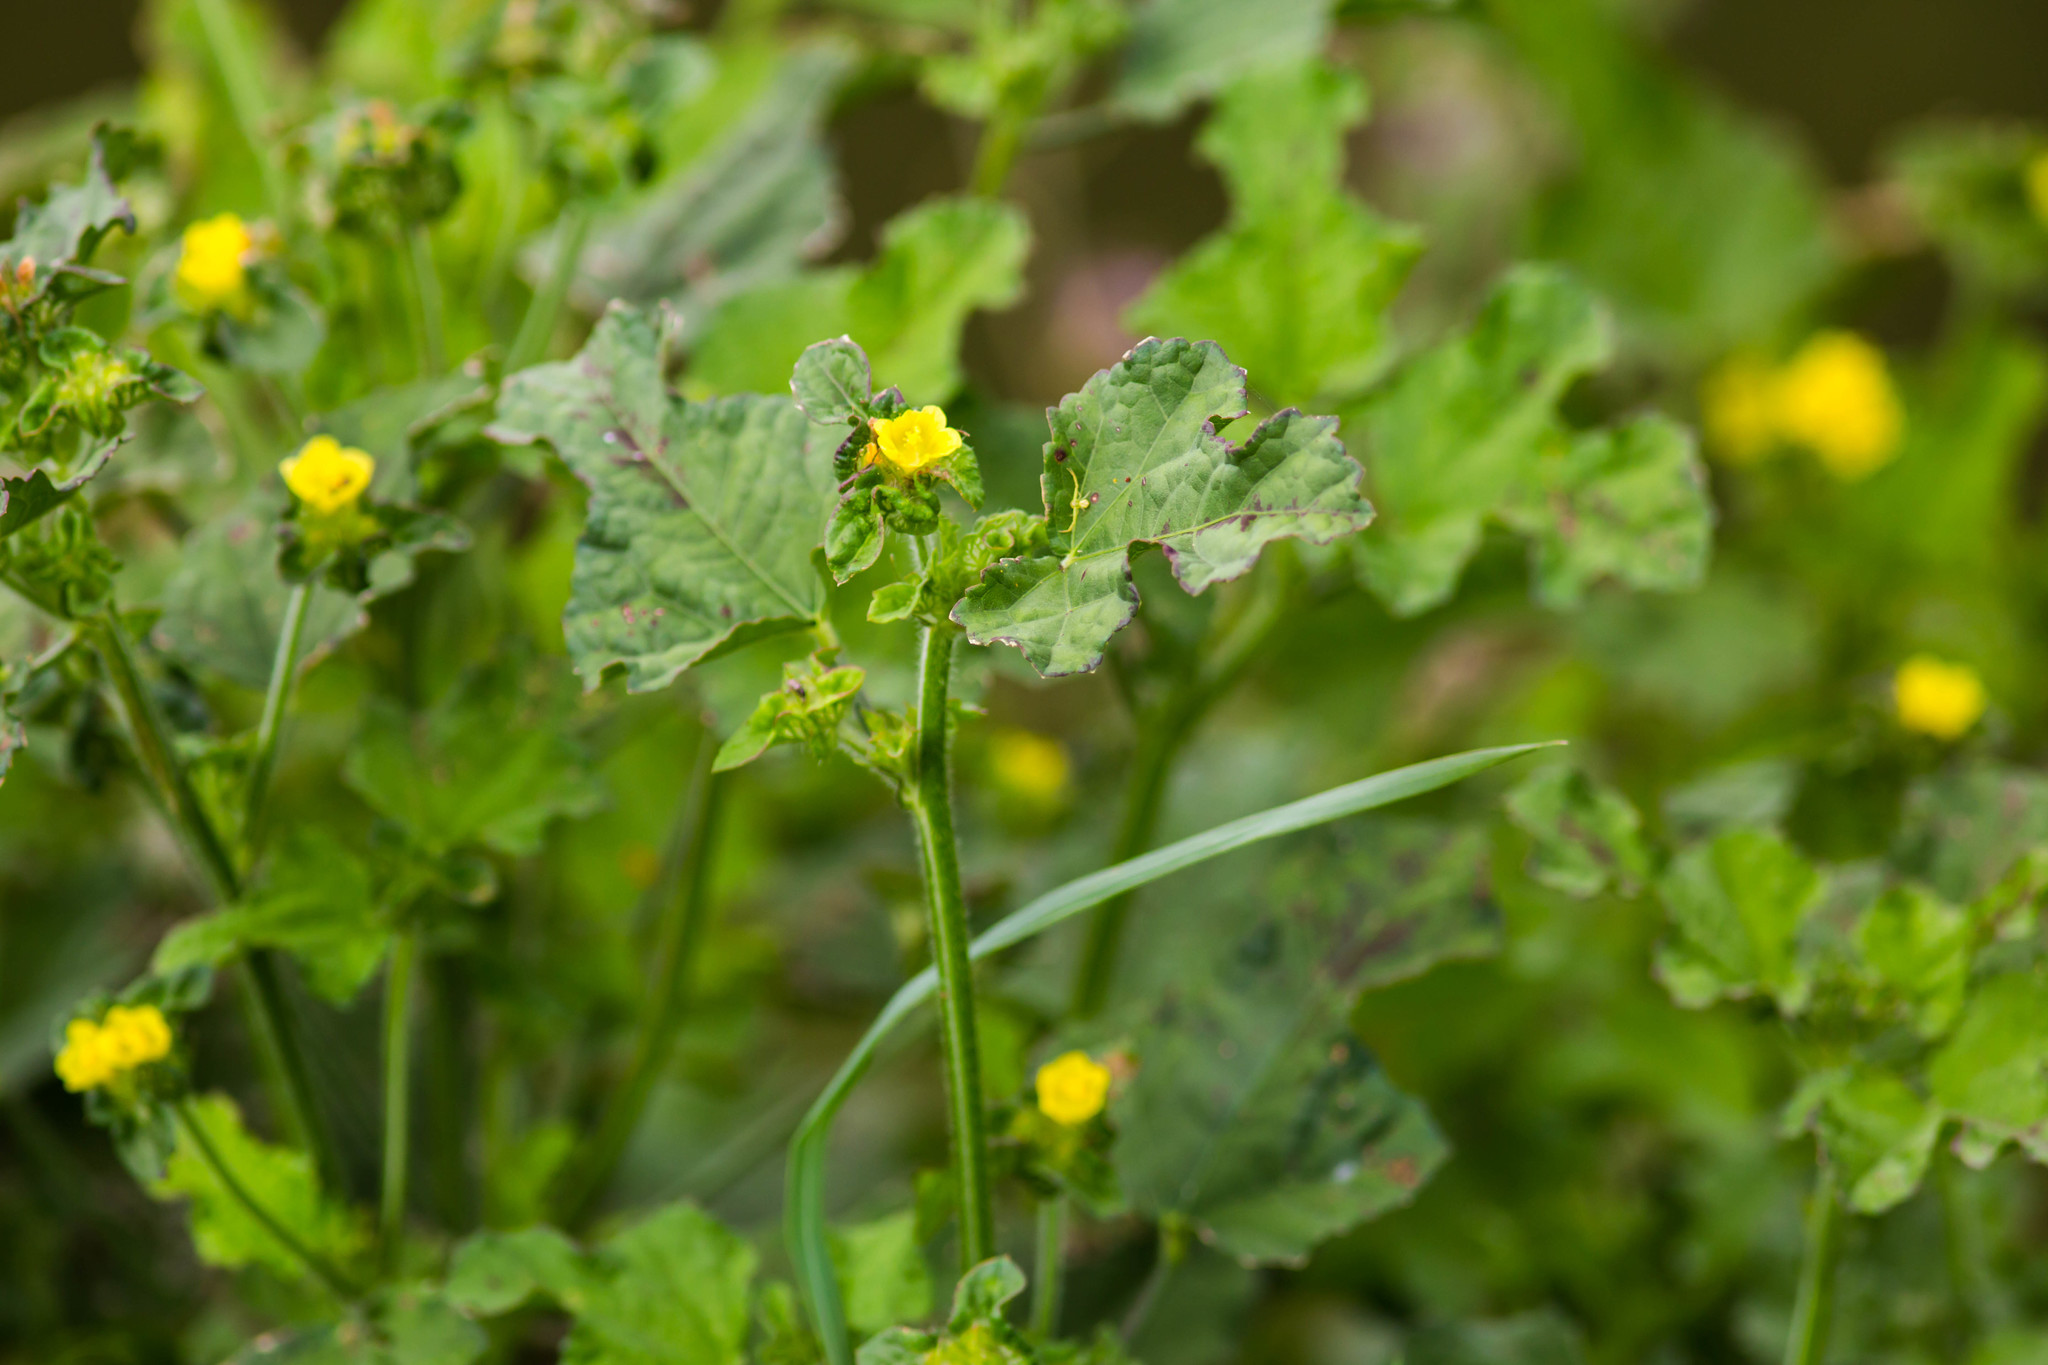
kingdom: Plantae
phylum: Tracheophyta
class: Magnoliopsida
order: Malvales
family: Malvaceae
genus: Malachra
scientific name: Malachra capitata
